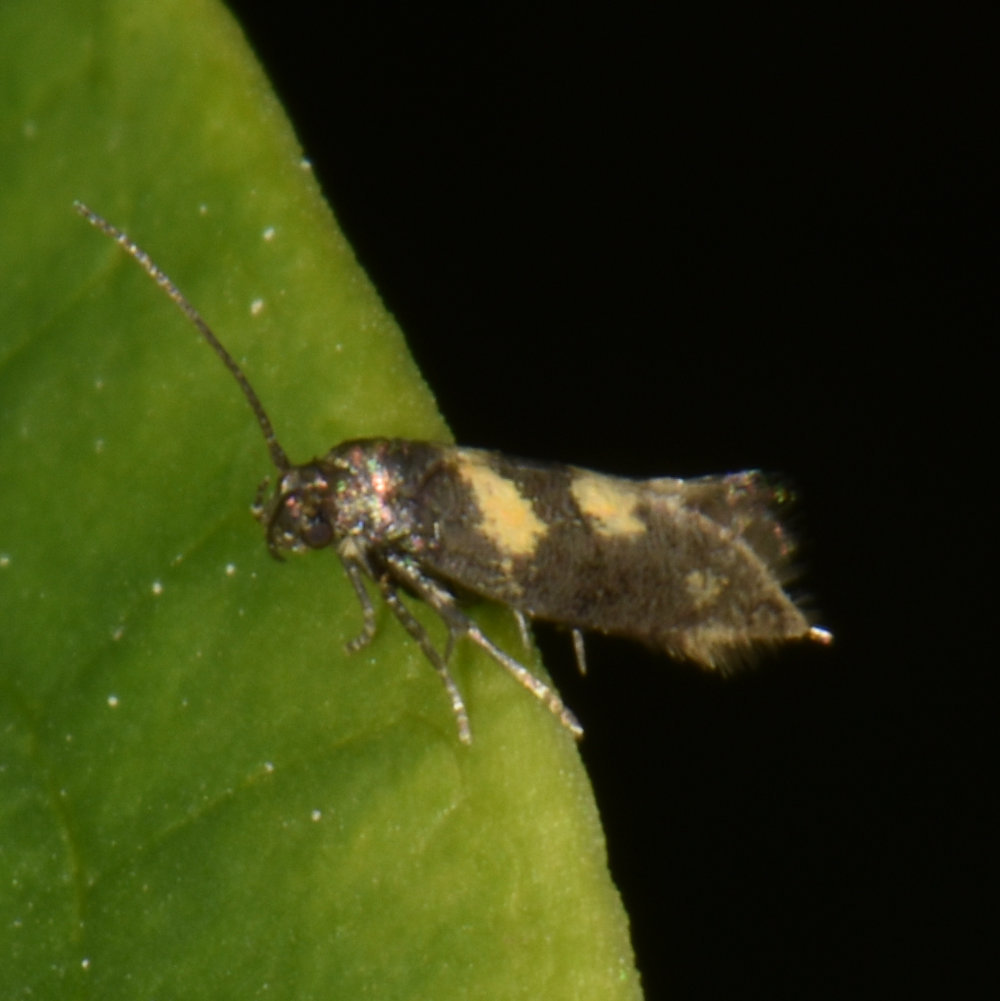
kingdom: Animalia
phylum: Arthropoda
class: Insecta
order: Lepidoptera
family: Gelechiidae
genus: Chrysoesthia
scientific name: Chrysoesthia sexguttella
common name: Moth
